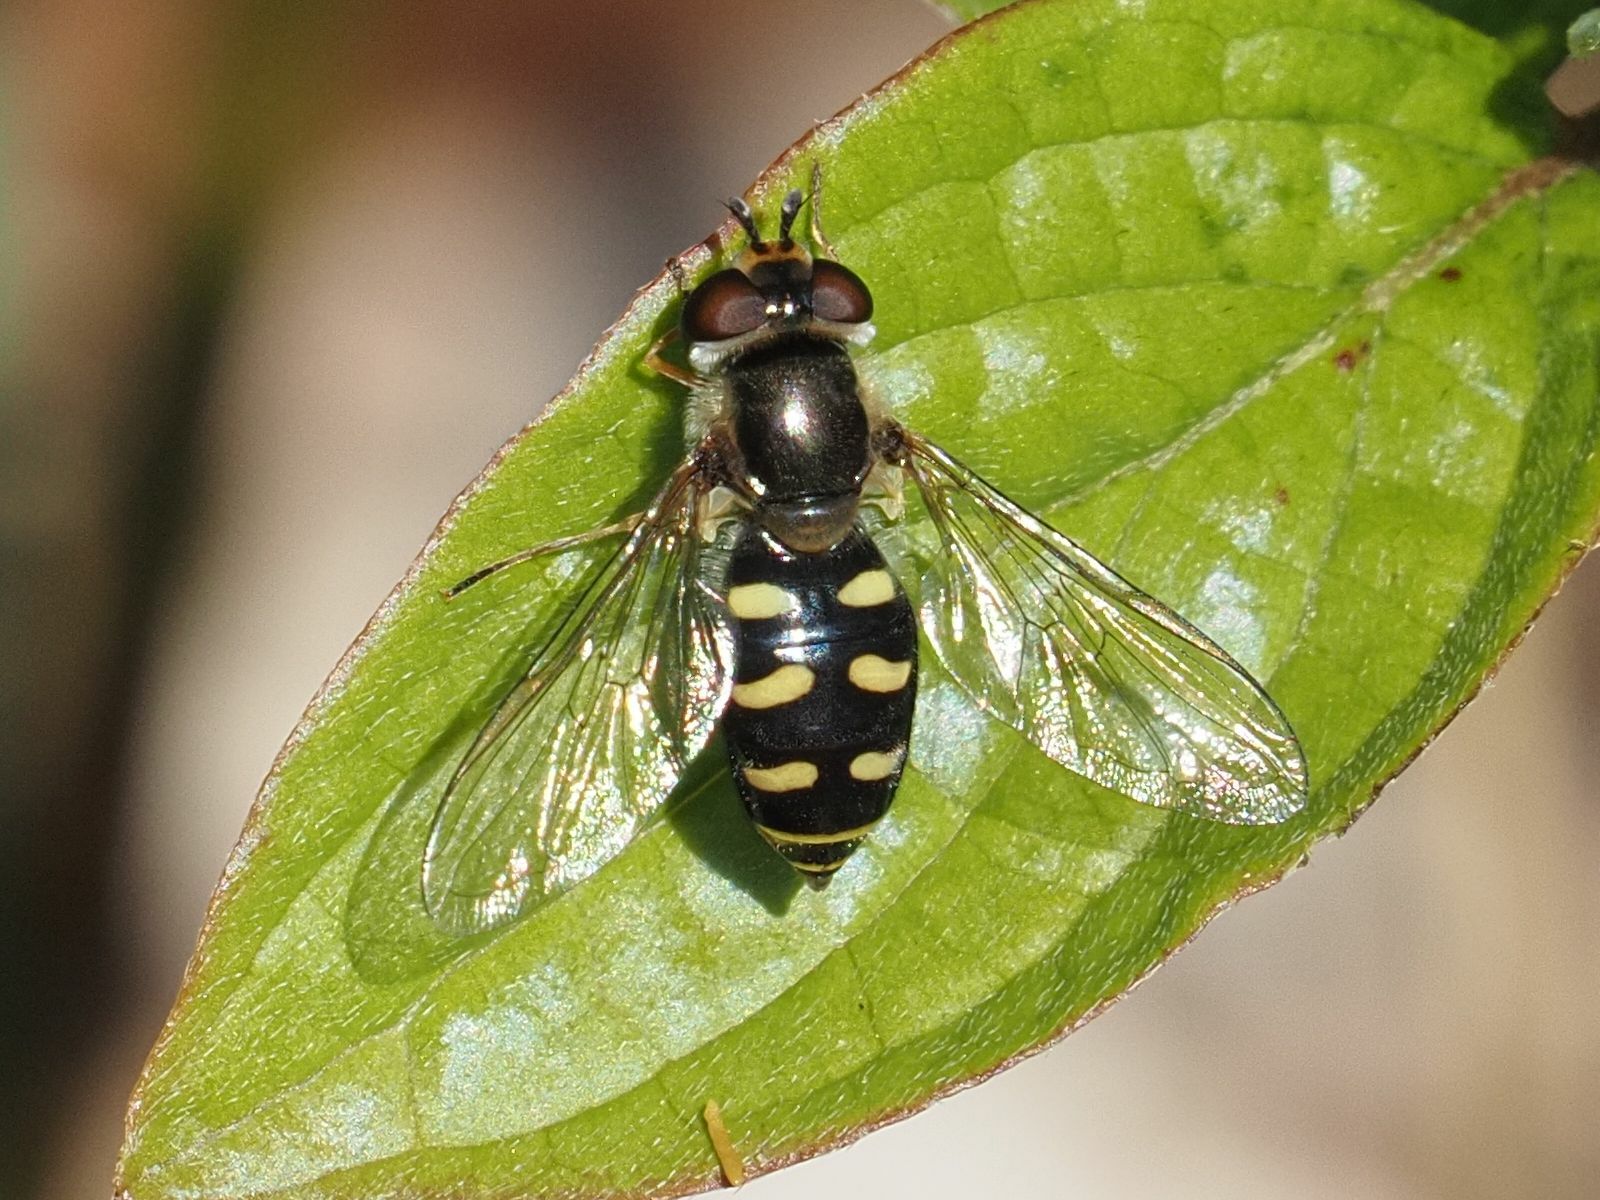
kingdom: Animalia
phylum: Arthropoda
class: Insecta
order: Diptera
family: Syrphidae
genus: Eupeodes
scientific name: Eupeodes luniger
